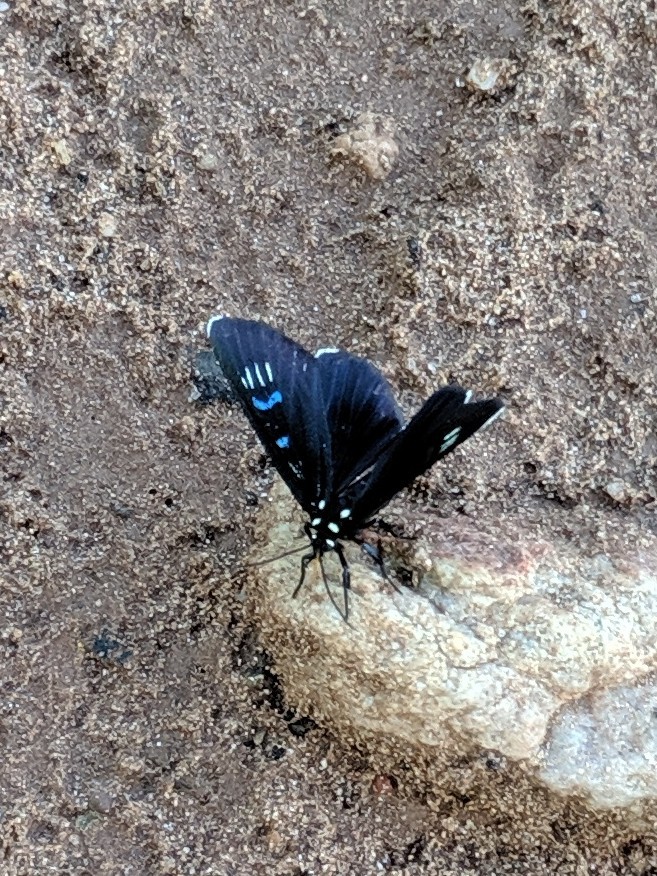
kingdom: Animalia
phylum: Arthropoda
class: Insecta
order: Lepidoptera
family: Noctuidae
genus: Alypiodes
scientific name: Alypiodes bimaculata
